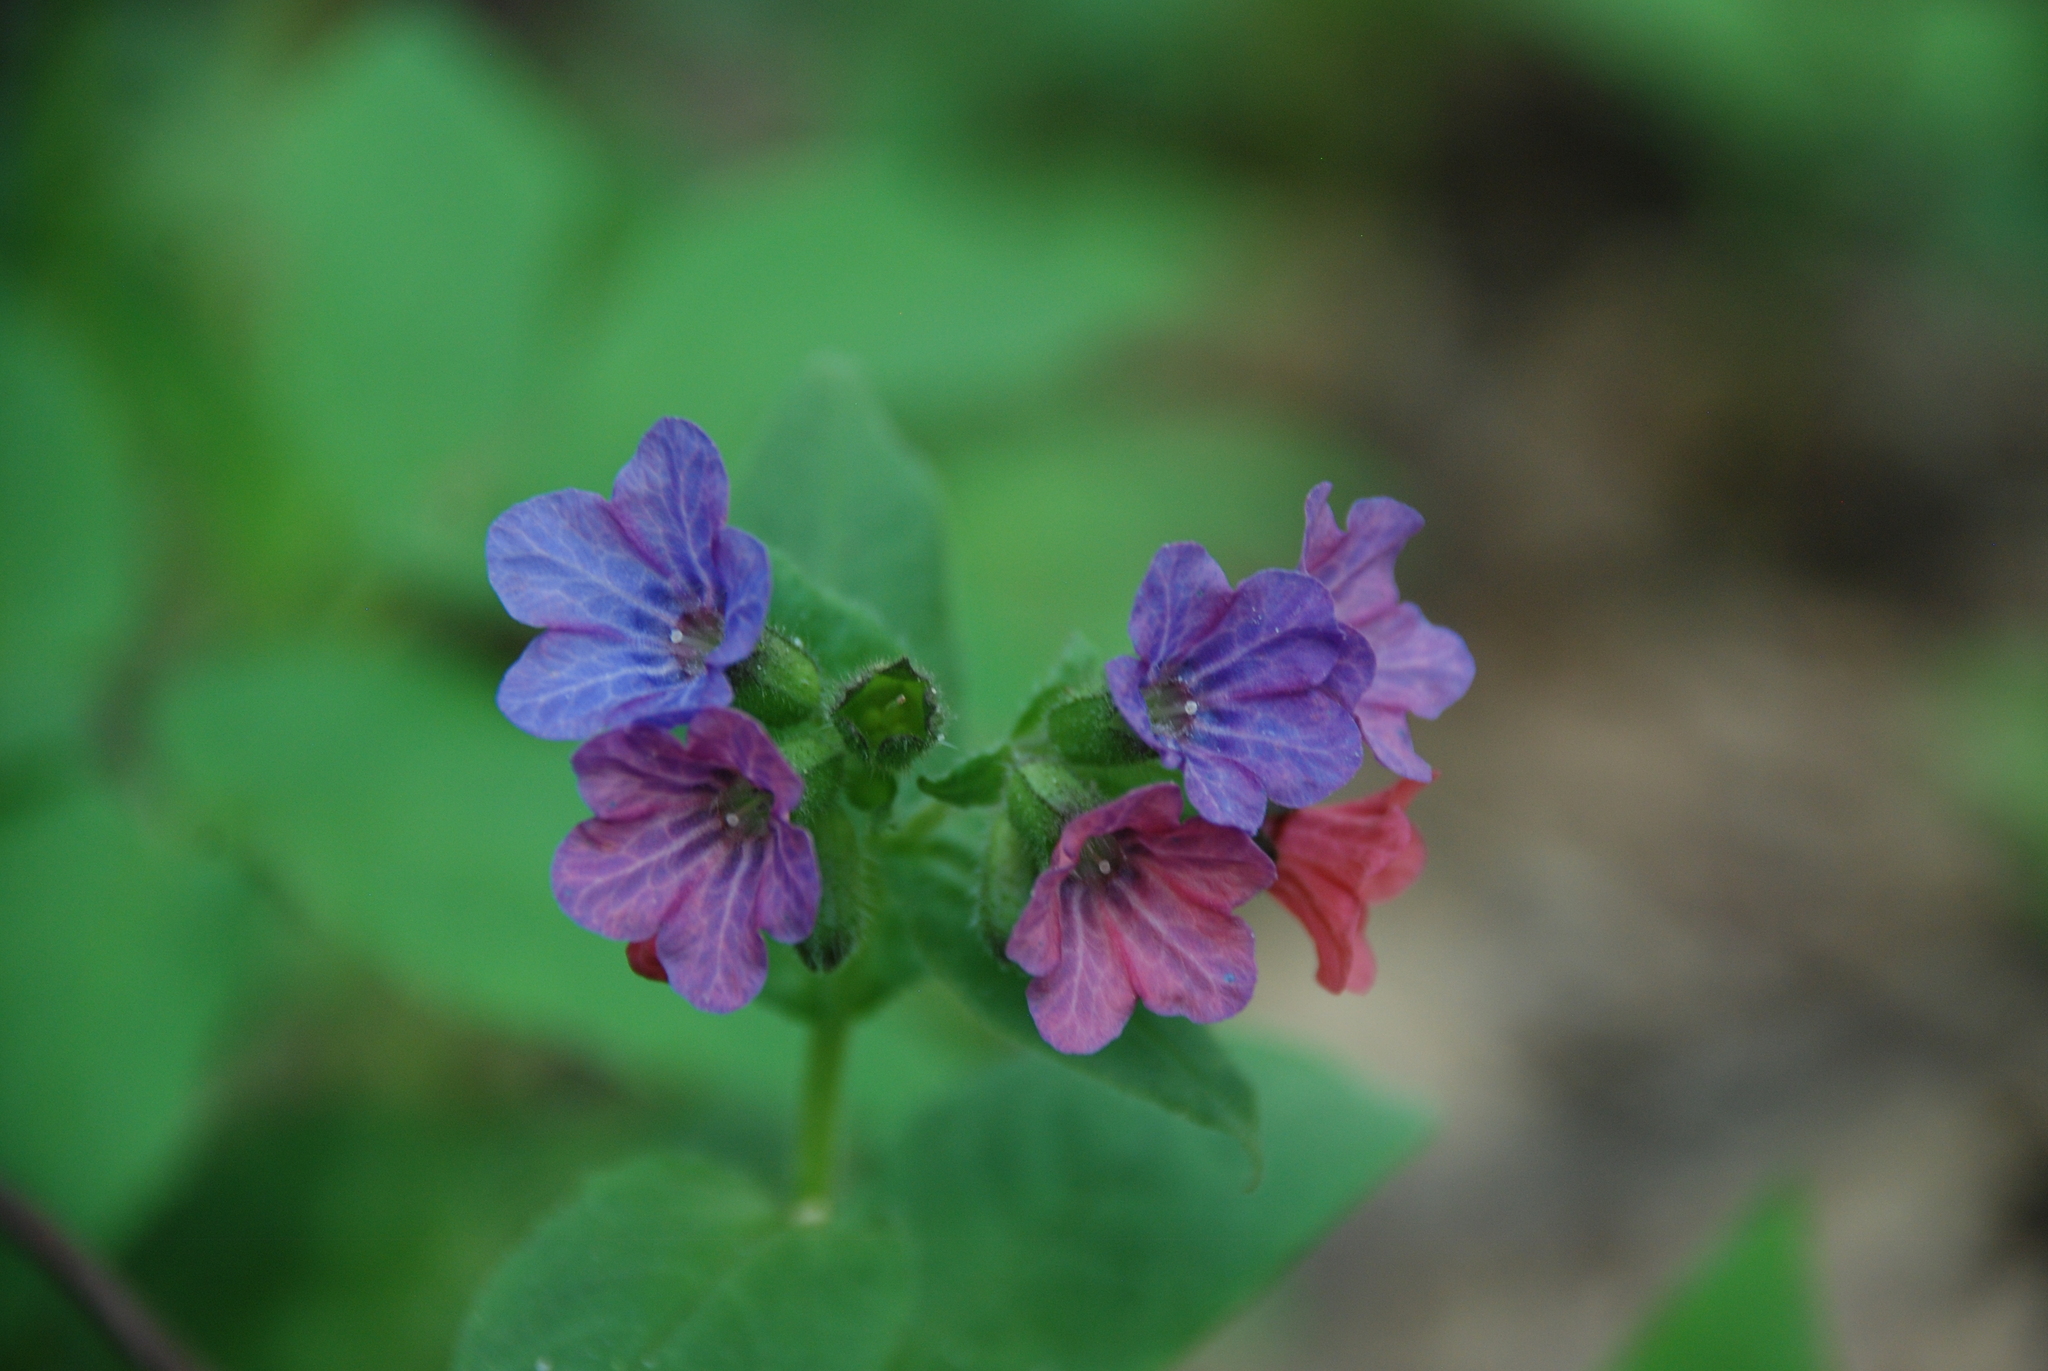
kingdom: Plantae
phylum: Tracheophyta
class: Magnoliopsida
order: Boraginales
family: Boraginaceae
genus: Pulmonaria
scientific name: Pulmonaria obscura
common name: Suffolk lungwort
